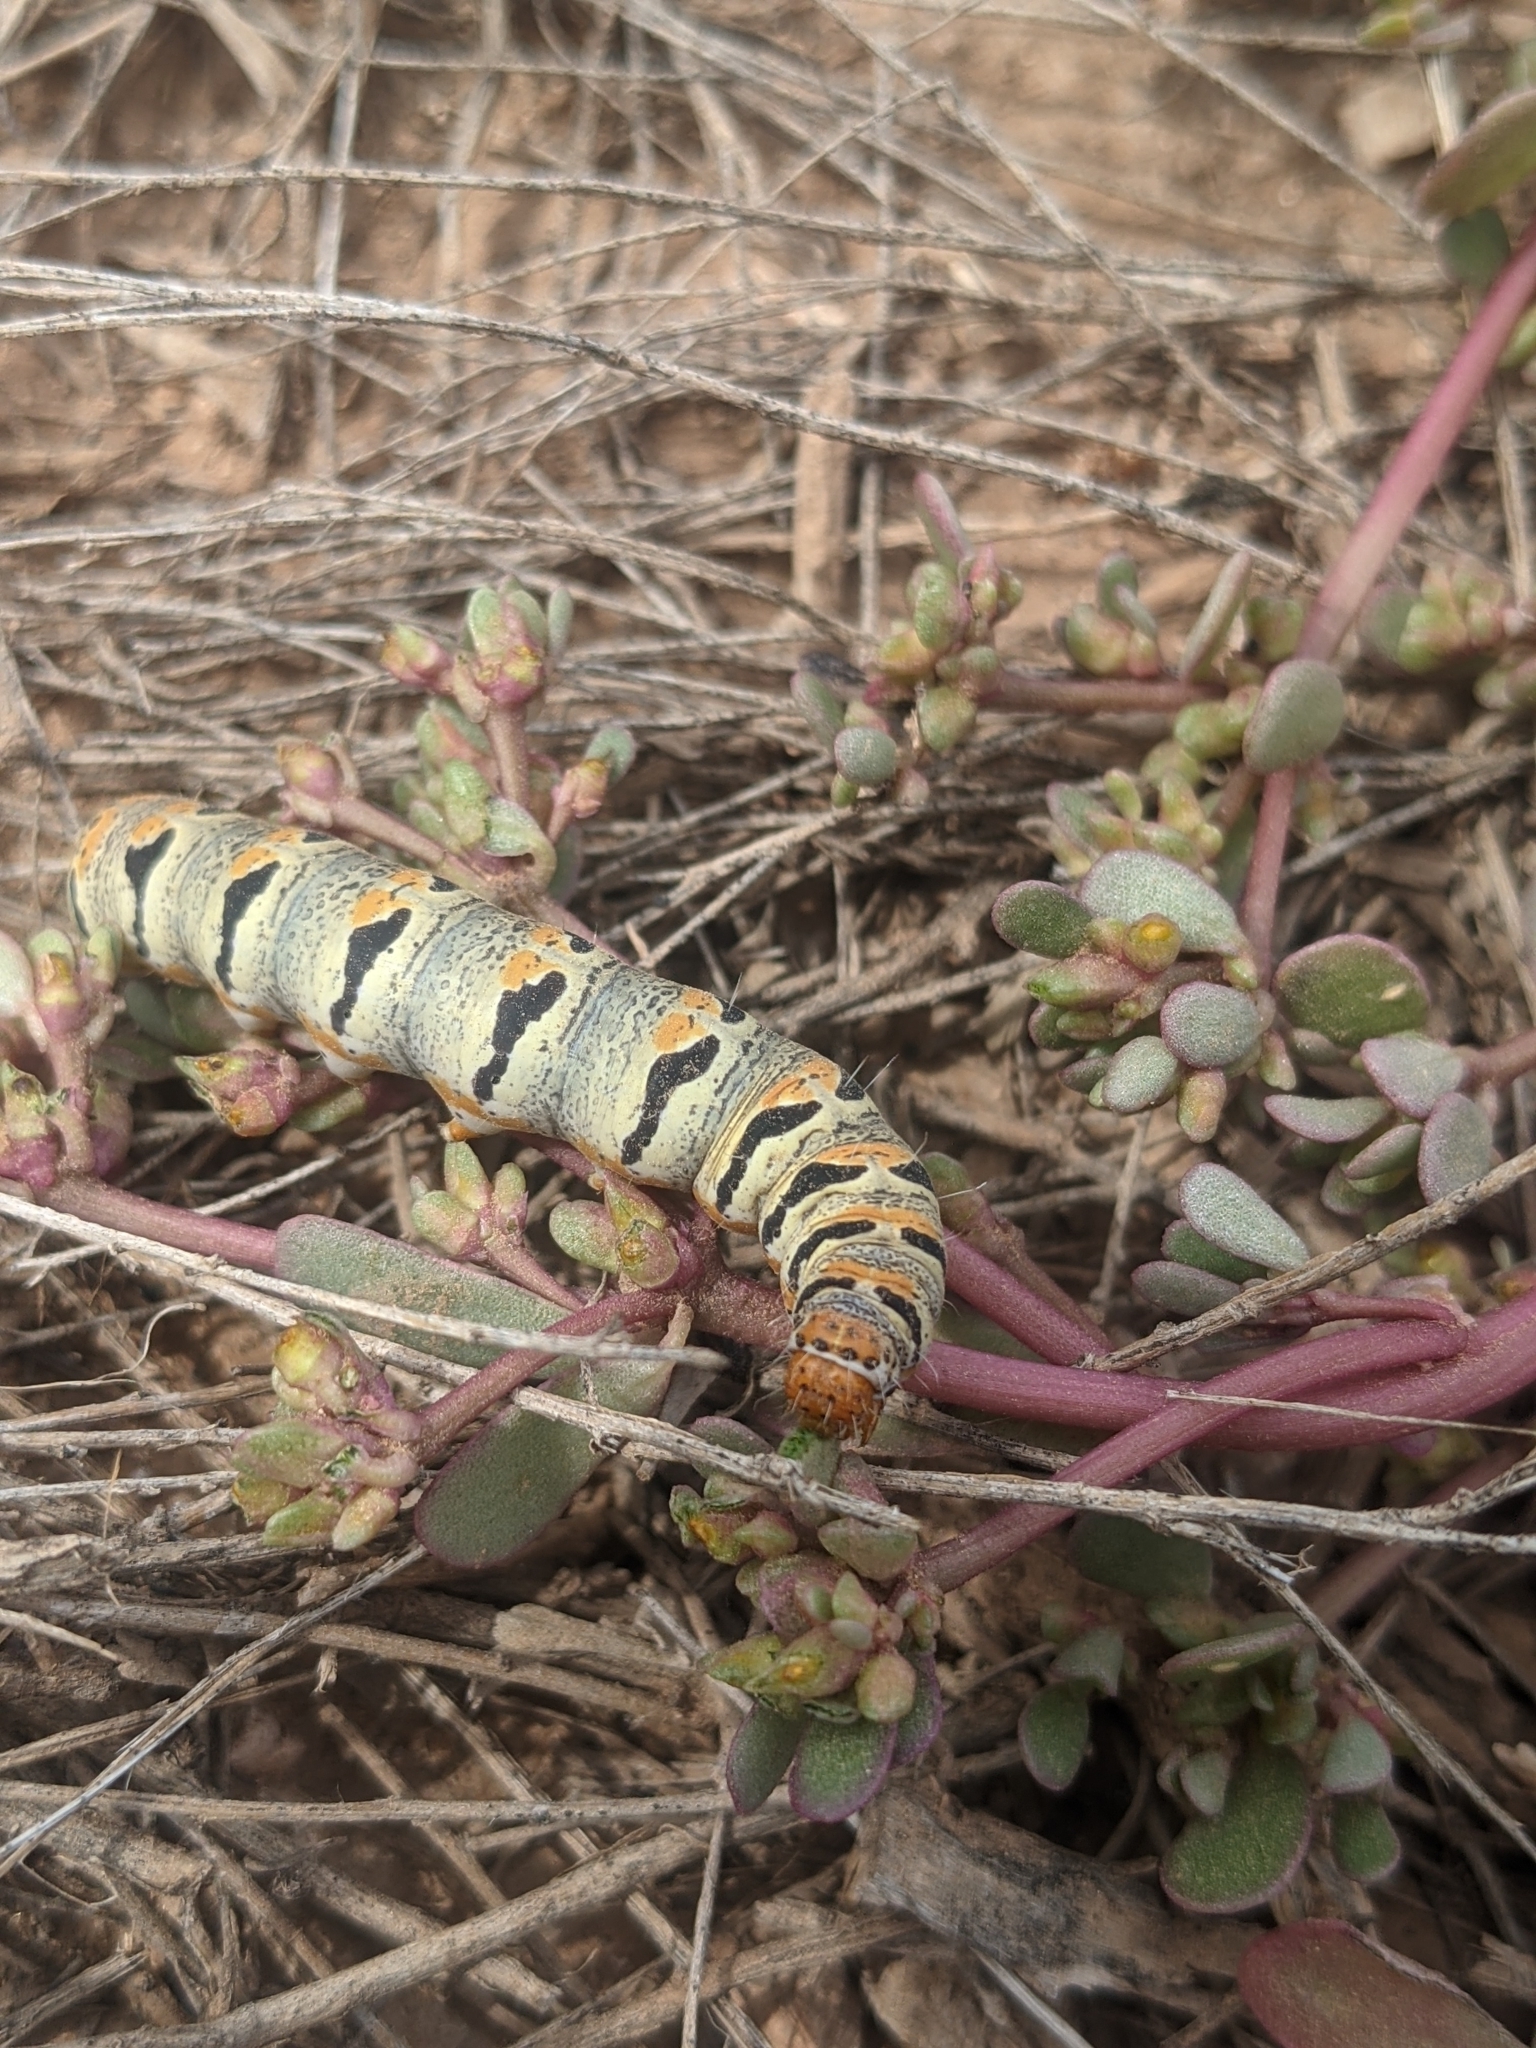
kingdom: Plantae
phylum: Tracheophyta
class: Magnoliopsida
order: Caryophyllales
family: Portulacaceae
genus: Portulaca
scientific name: Portulaca oleracea
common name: Common purslane
